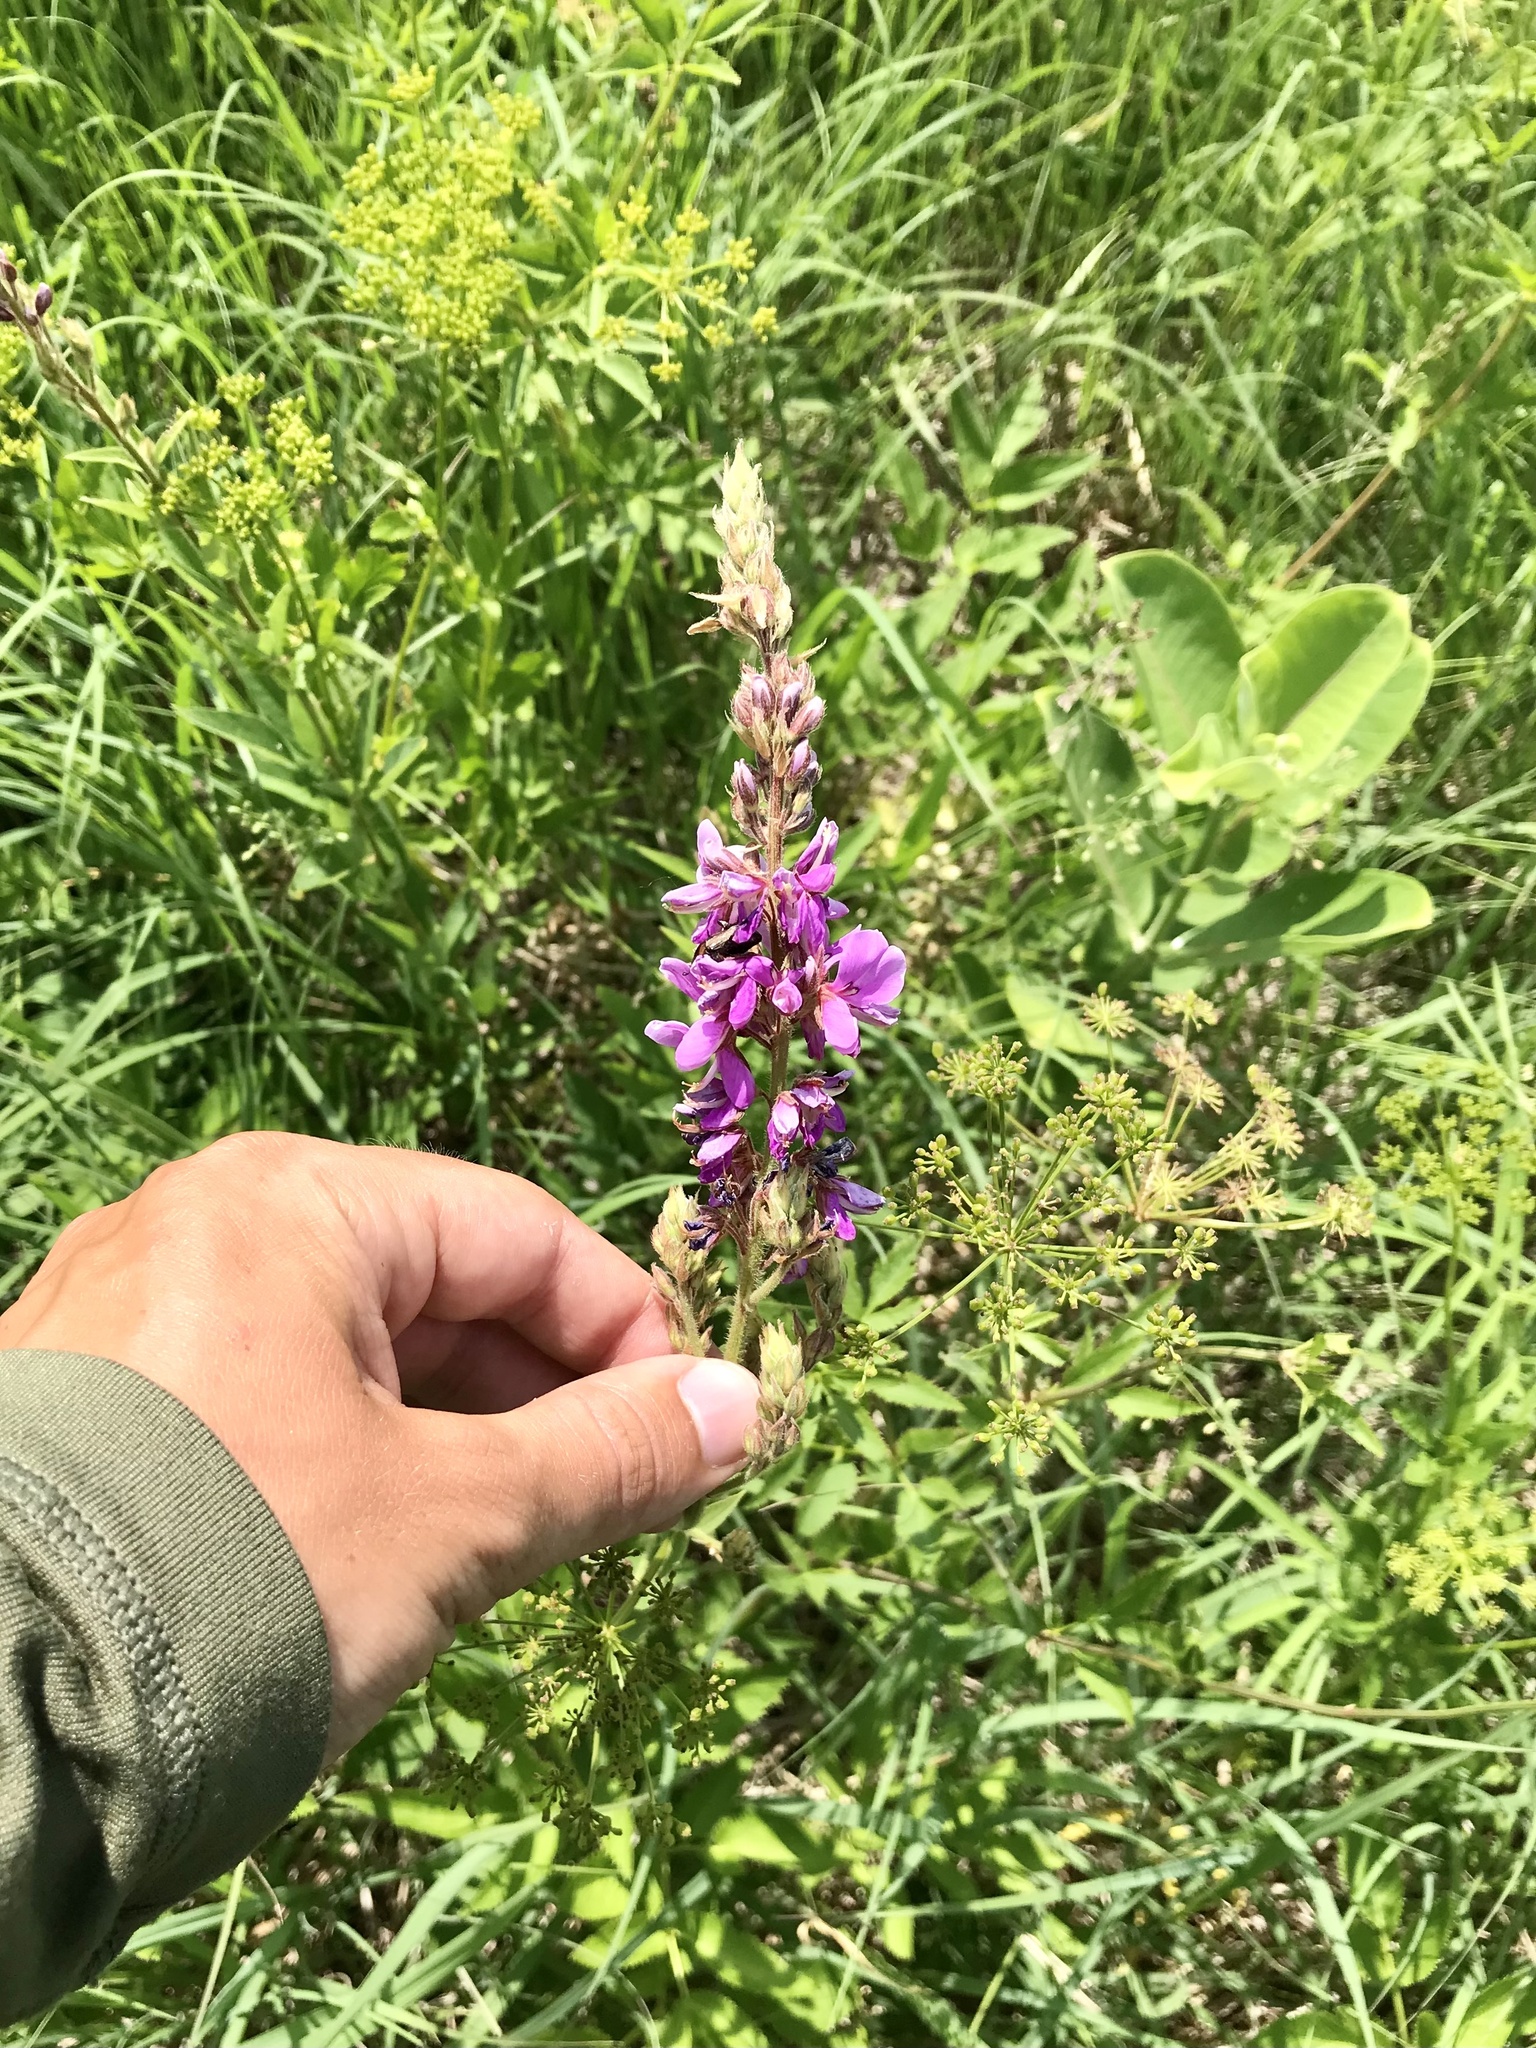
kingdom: Plantae
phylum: Tracheophyta
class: Magnoliopsida
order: Fabales
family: Fabaceae
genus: Desmodium
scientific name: Desmodium canadense
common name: Canada tick-trefoil
